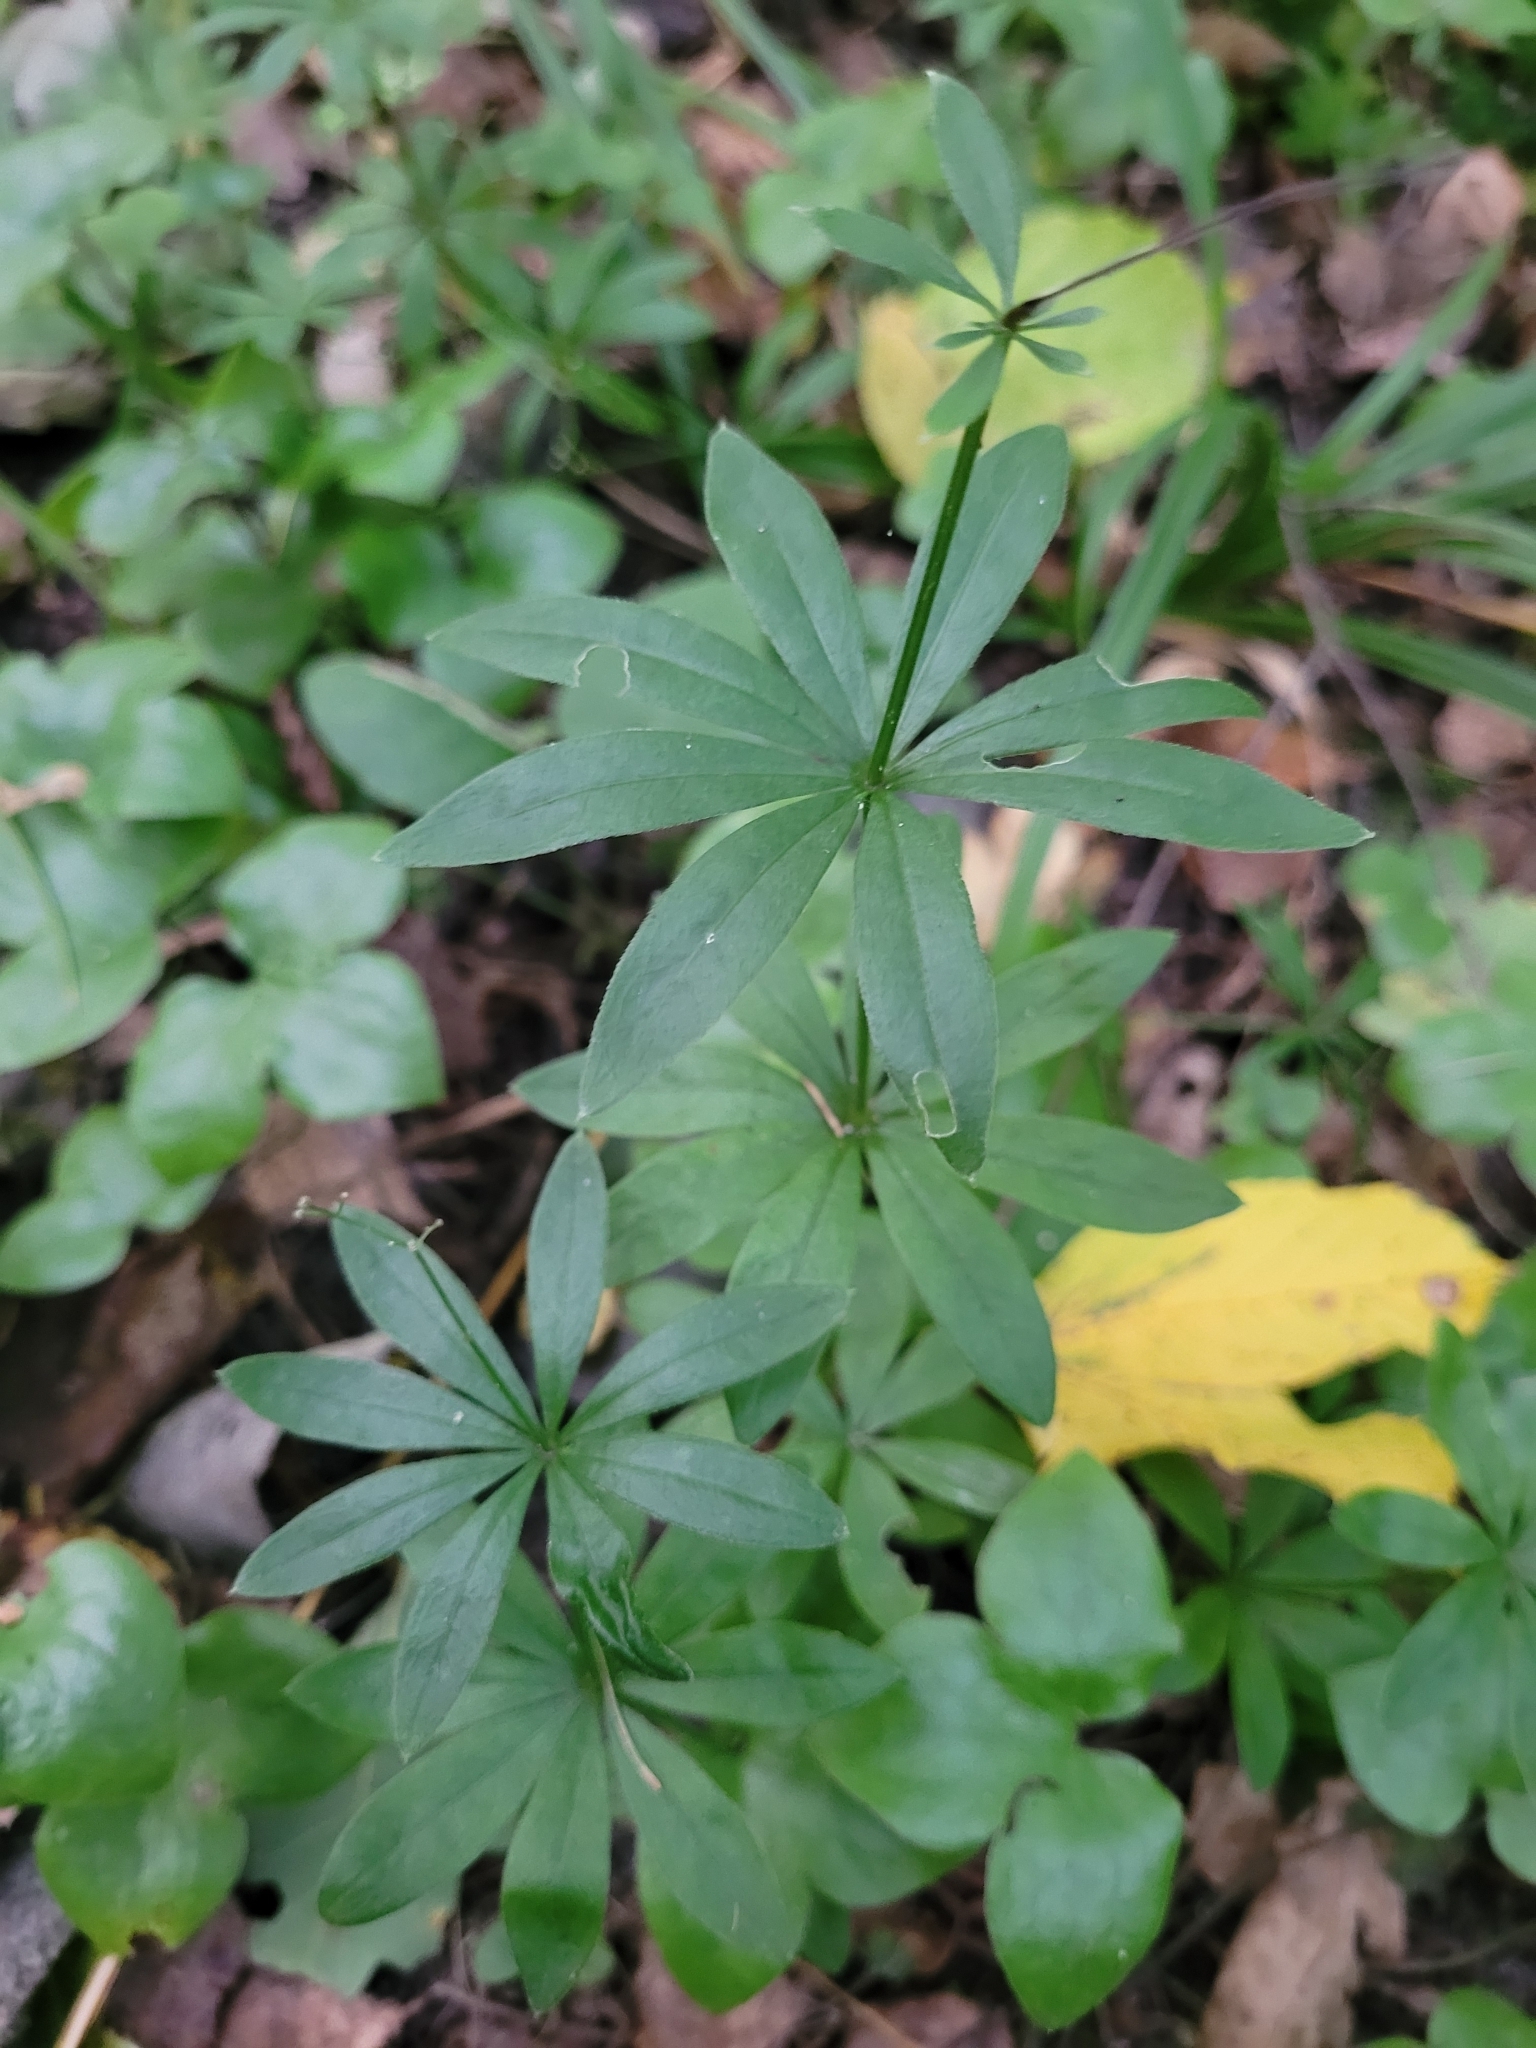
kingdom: Plantae
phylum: Tracheophyta
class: Magnoliopsida
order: Gentianales
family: Rubiaceae
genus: Galium
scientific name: Galium odoratum
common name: Sweet woodruff
